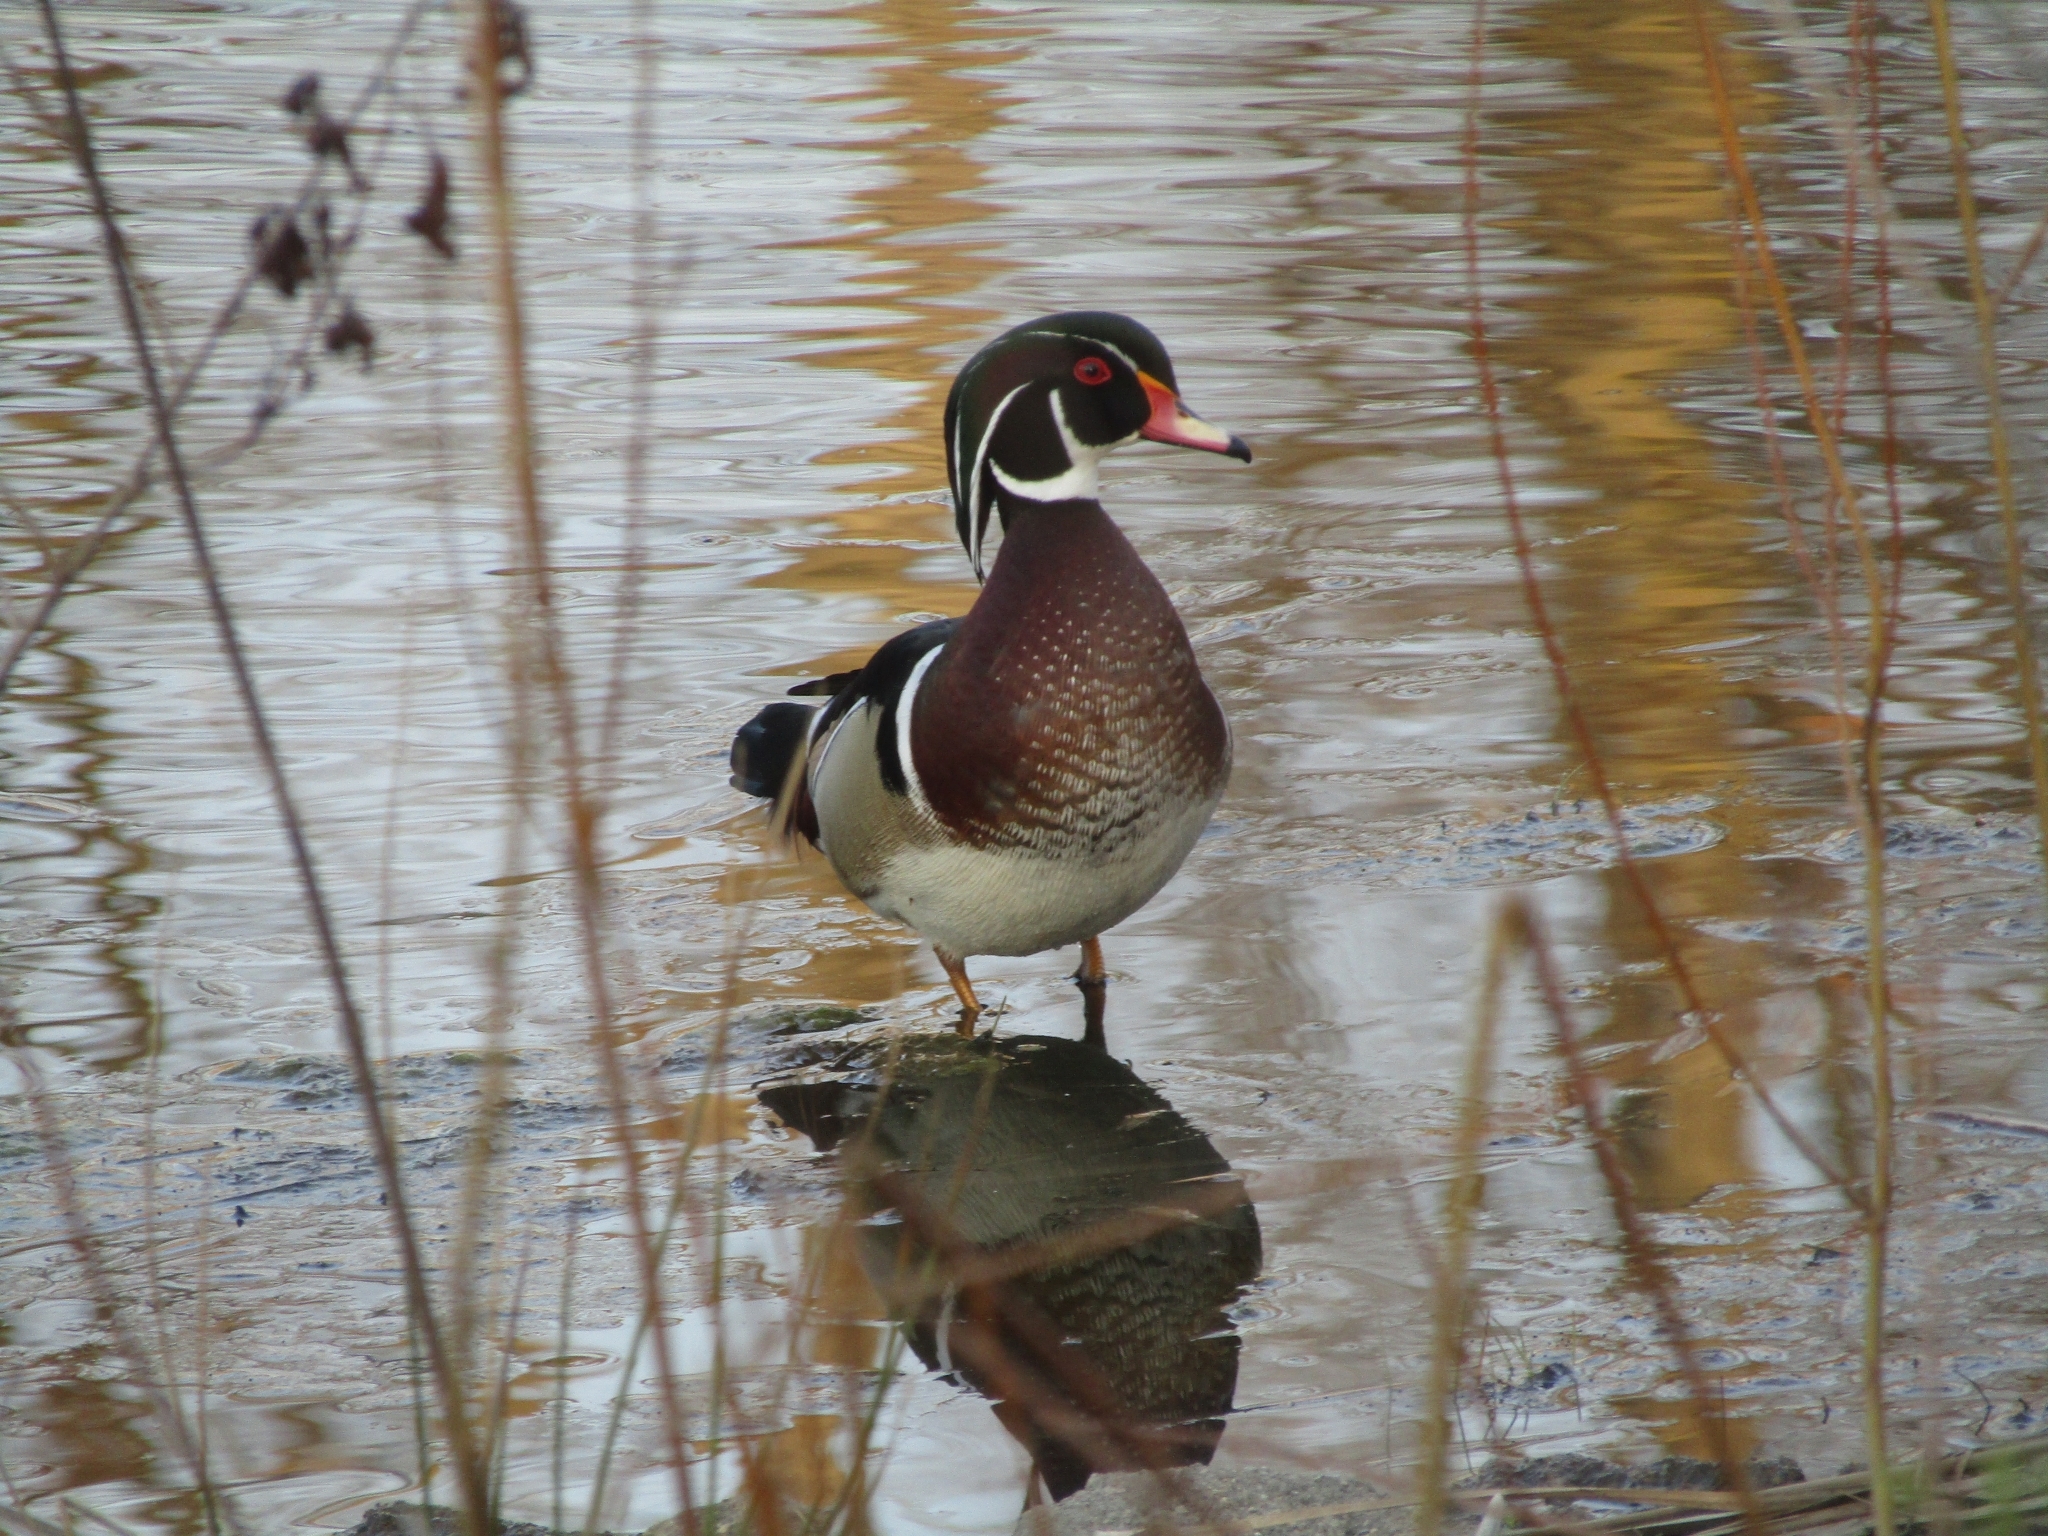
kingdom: Animalia
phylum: Chordata
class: Aves
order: Anseriformes
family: Anatidae
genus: Aix
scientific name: Aix sponsa
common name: Wood duck
